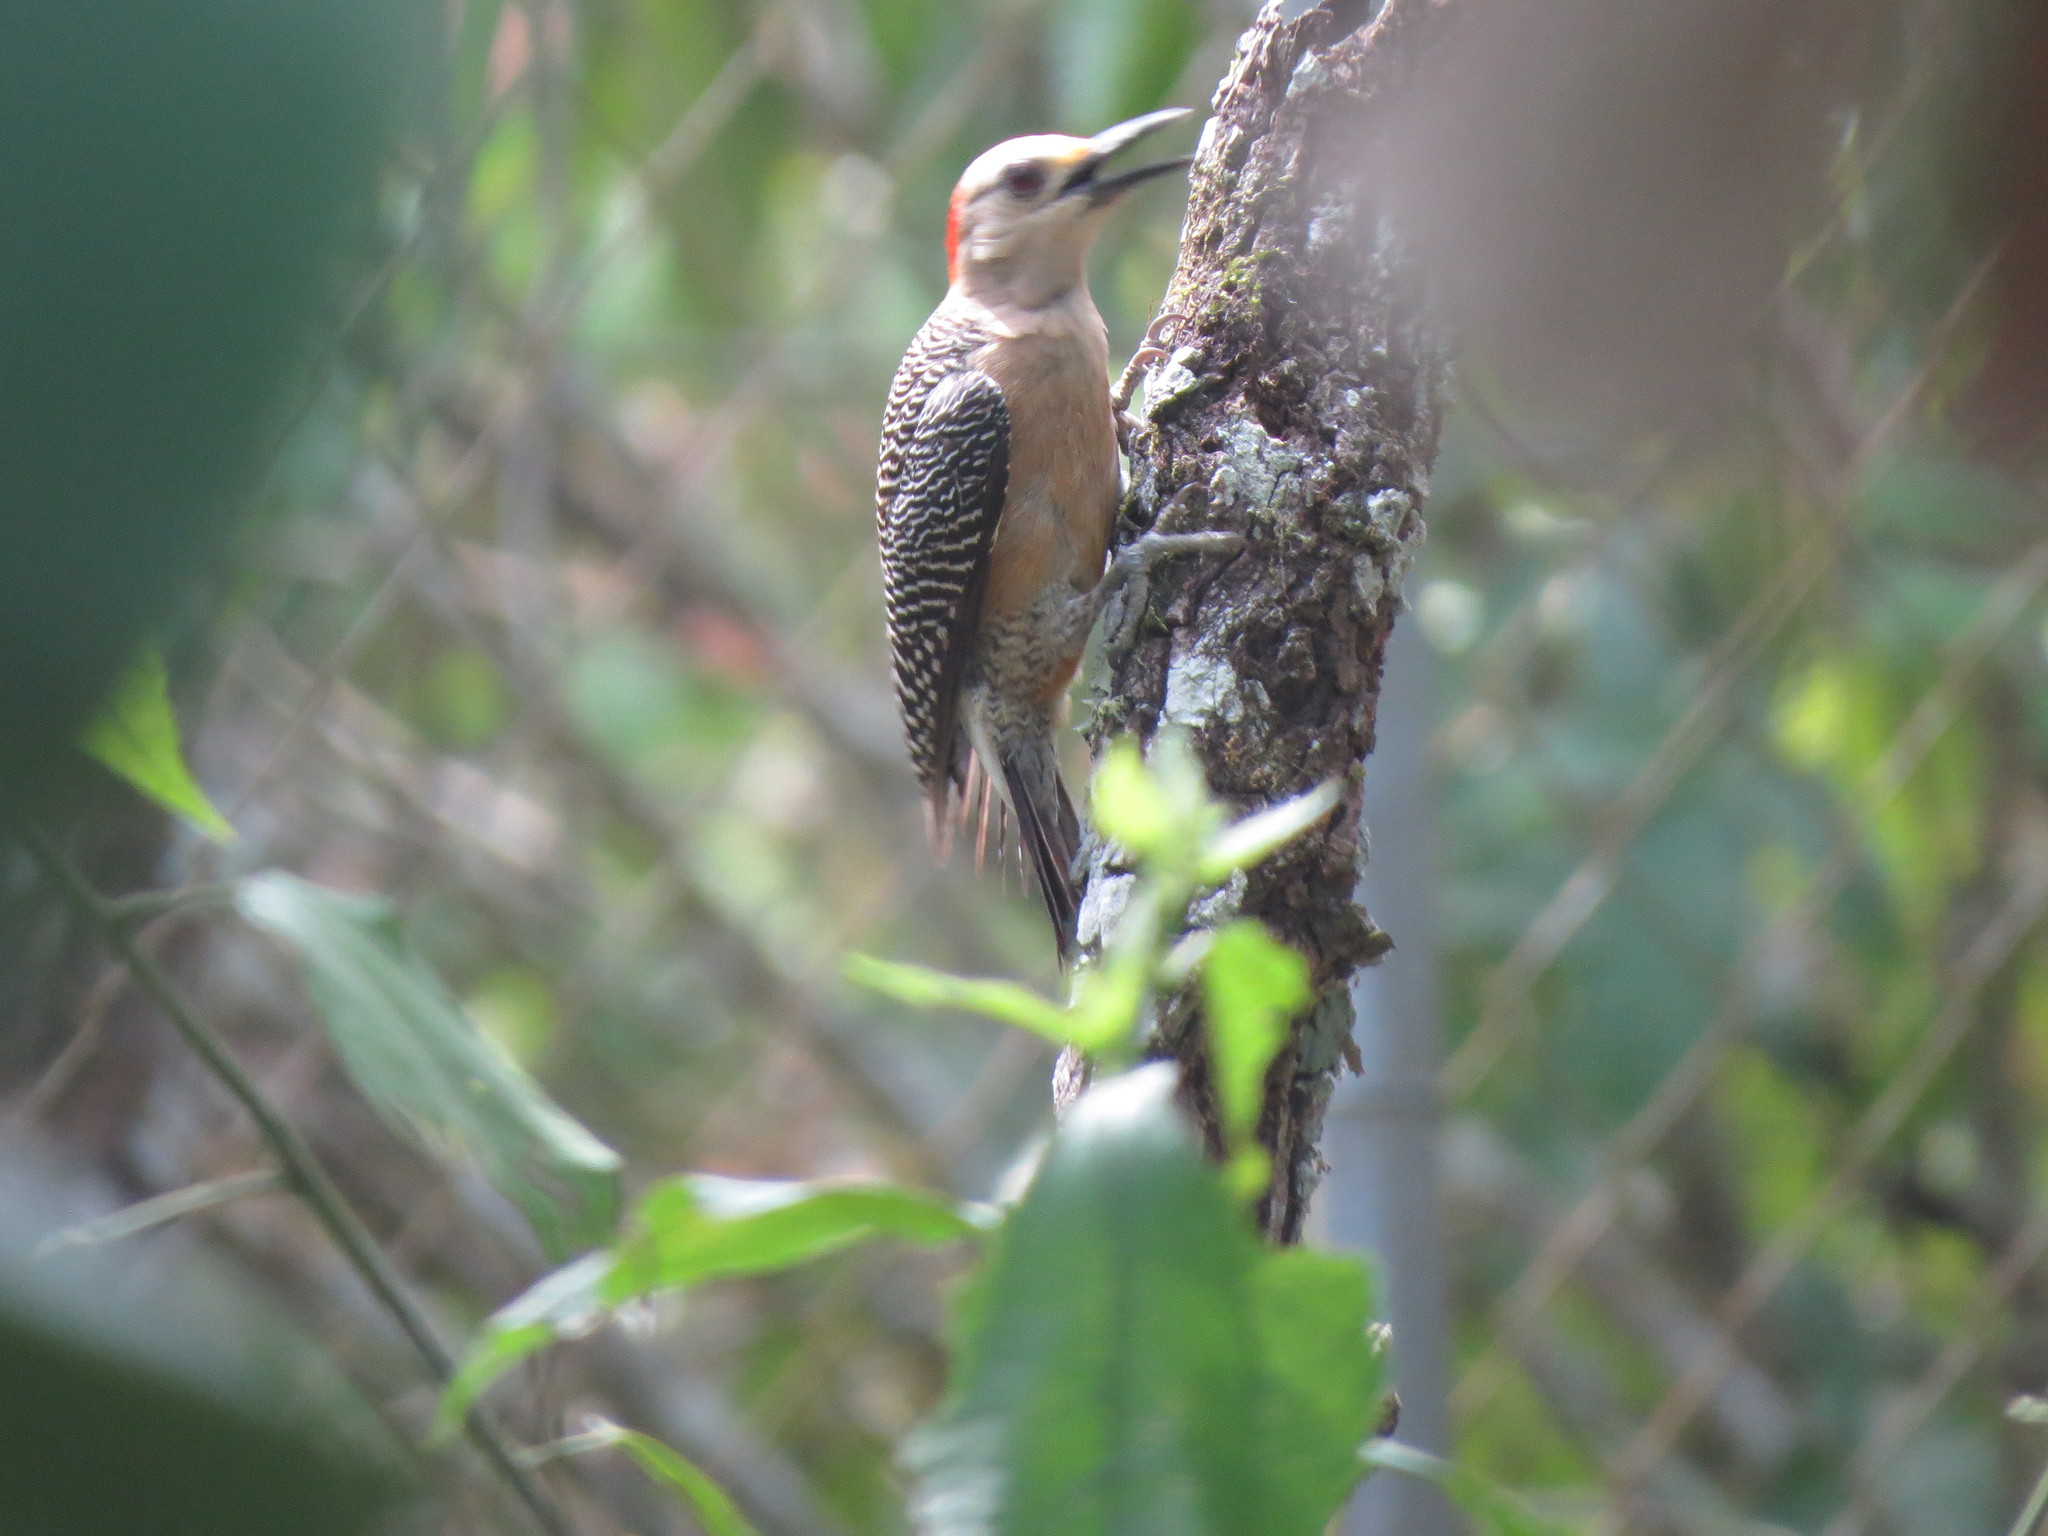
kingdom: Animalia
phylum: Chordata
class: Aves
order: Piciformes
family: Picidae
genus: Melanerpes
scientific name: Melanerpes aurifrons
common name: Golden-fronted woodpecker
